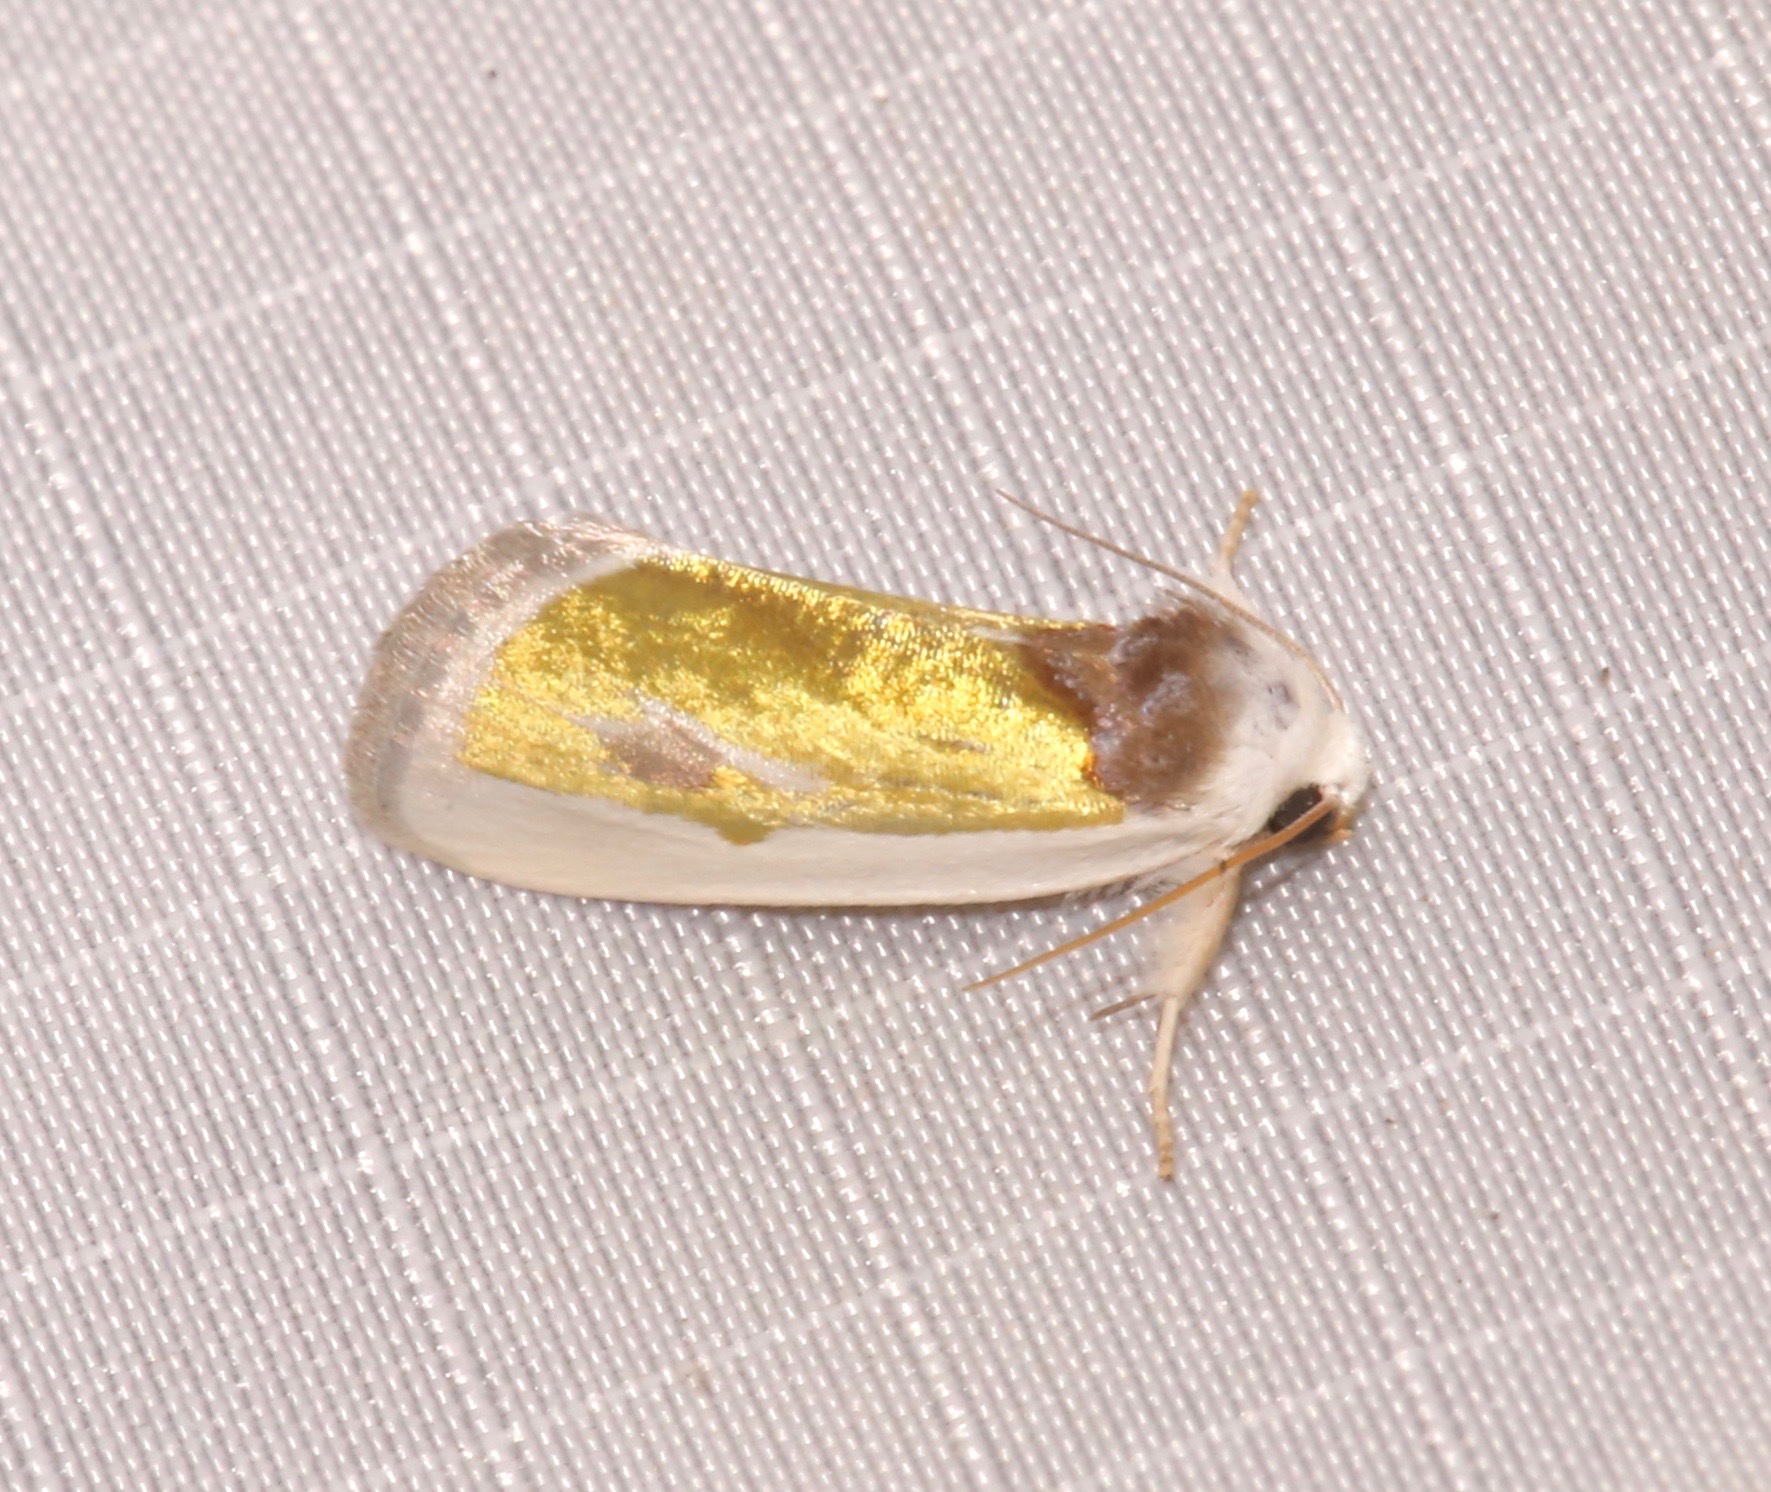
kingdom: Animalia
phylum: Arthropoda
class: Insecta
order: Lepidoptera
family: Noctuidae
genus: Neumoegenia
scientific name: Neumoegenia poetica
